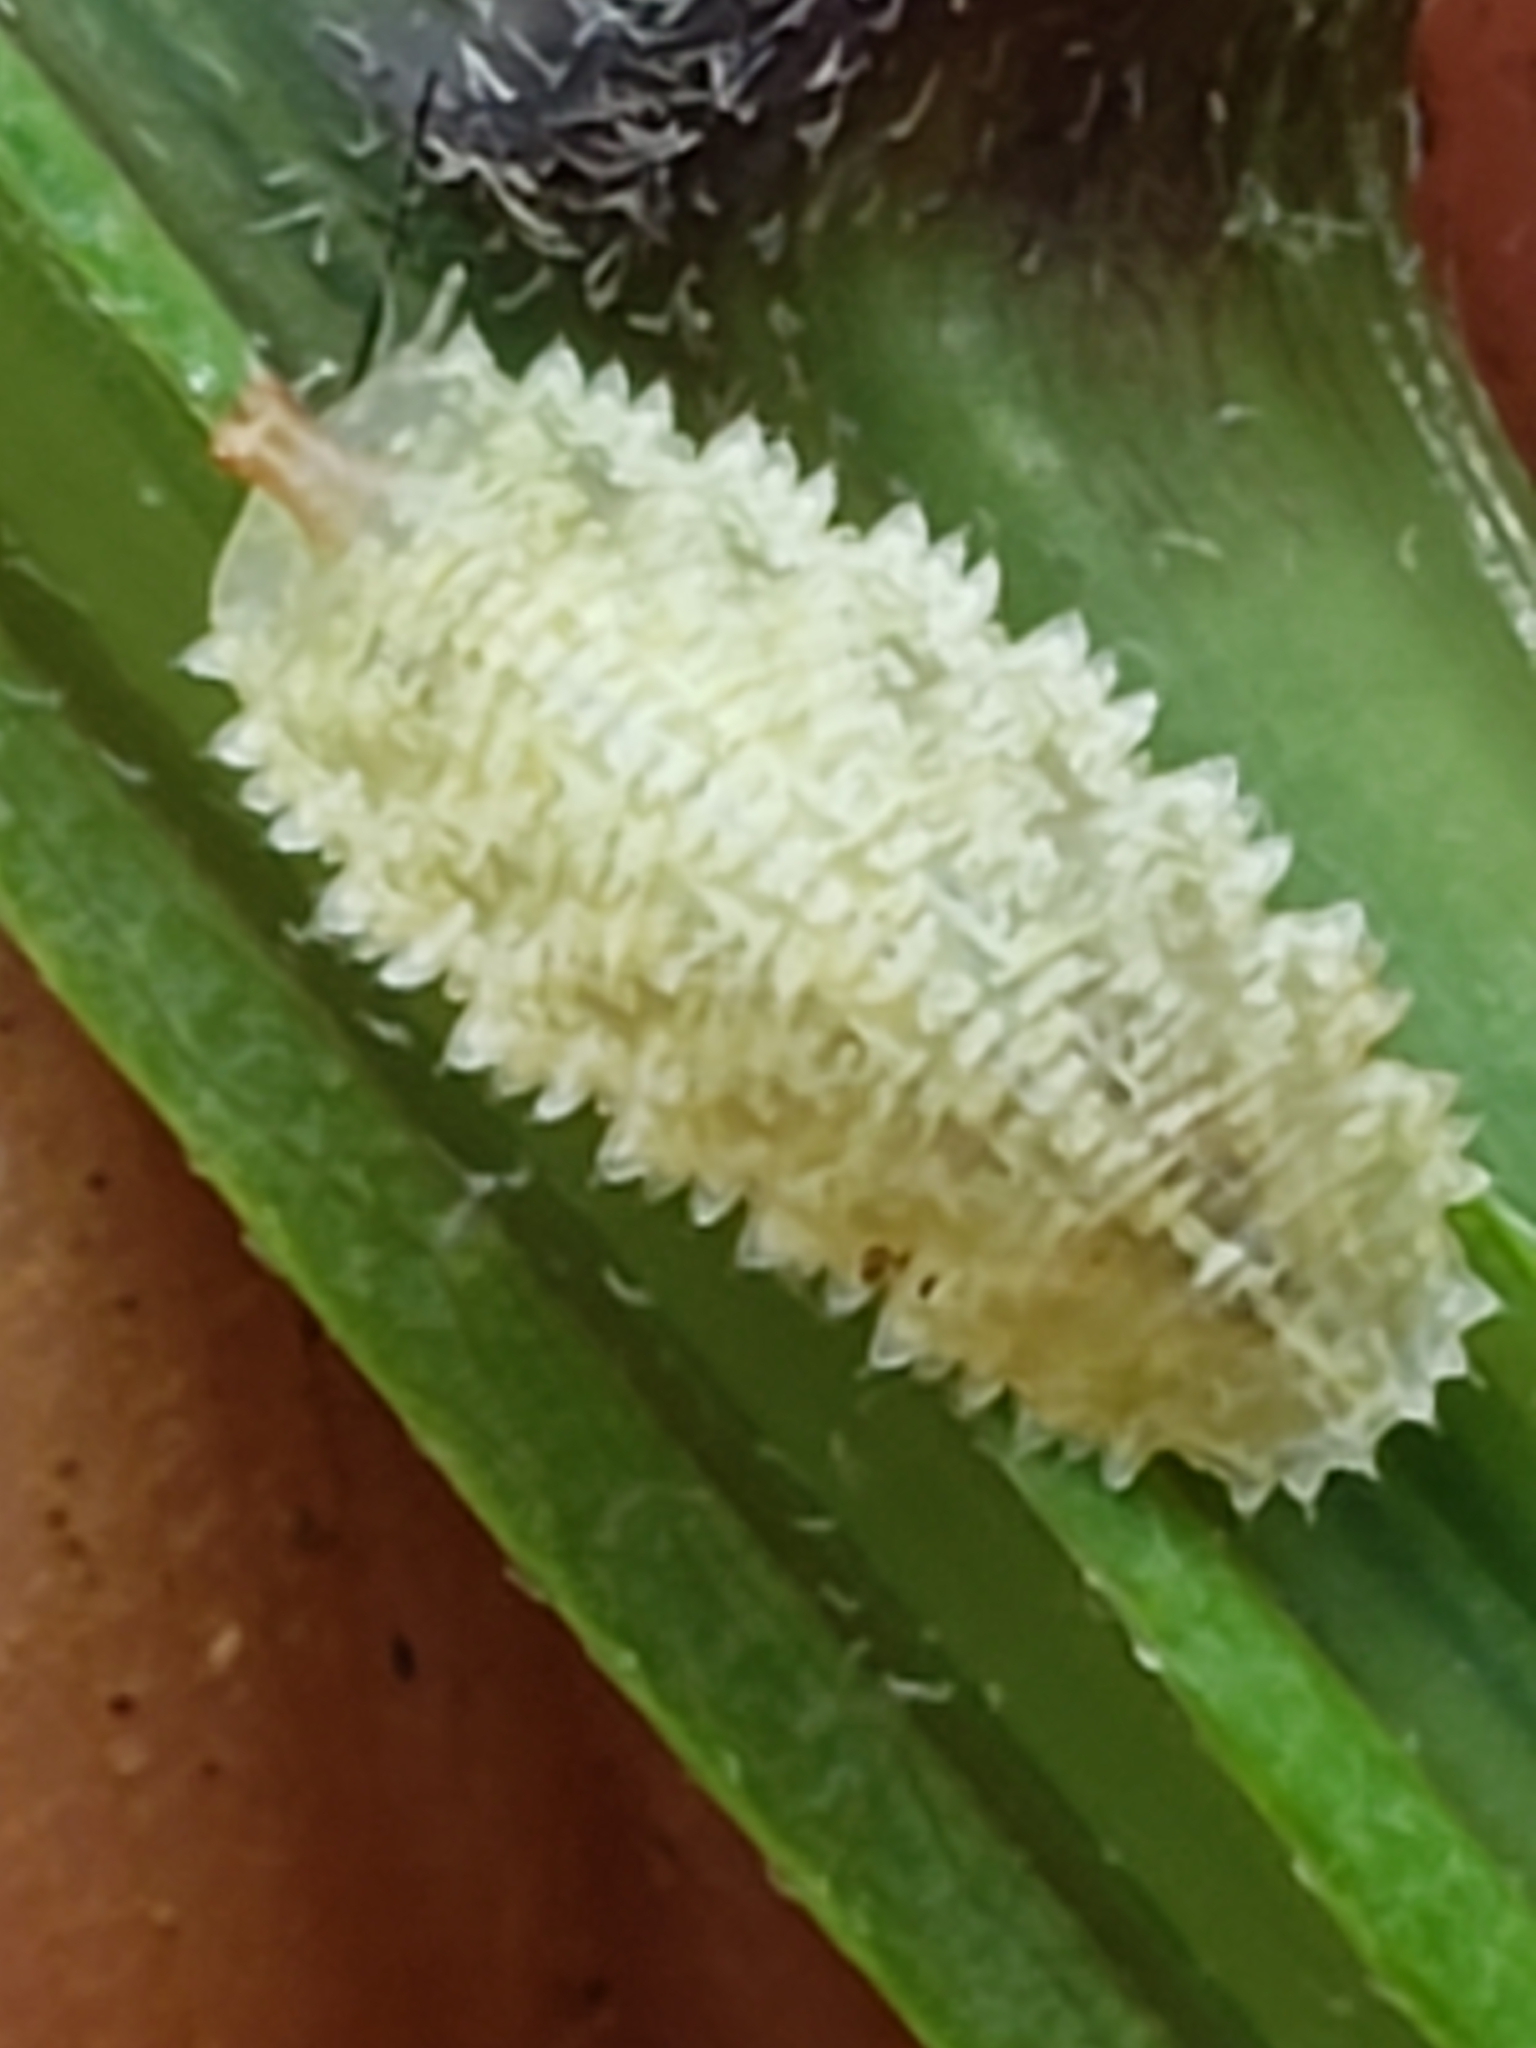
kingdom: Animalia
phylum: Arthropoda
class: Insecta
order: Diptera
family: Syrphidae
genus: Epistrophella
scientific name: Epistrophella emarginata
